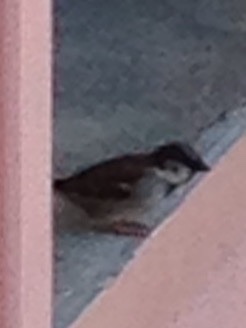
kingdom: Animalia
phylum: Chordata
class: Aves
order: Passeriformes
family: Passeridae
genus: Passer
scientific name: Passer domesticus
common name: House sparrow
